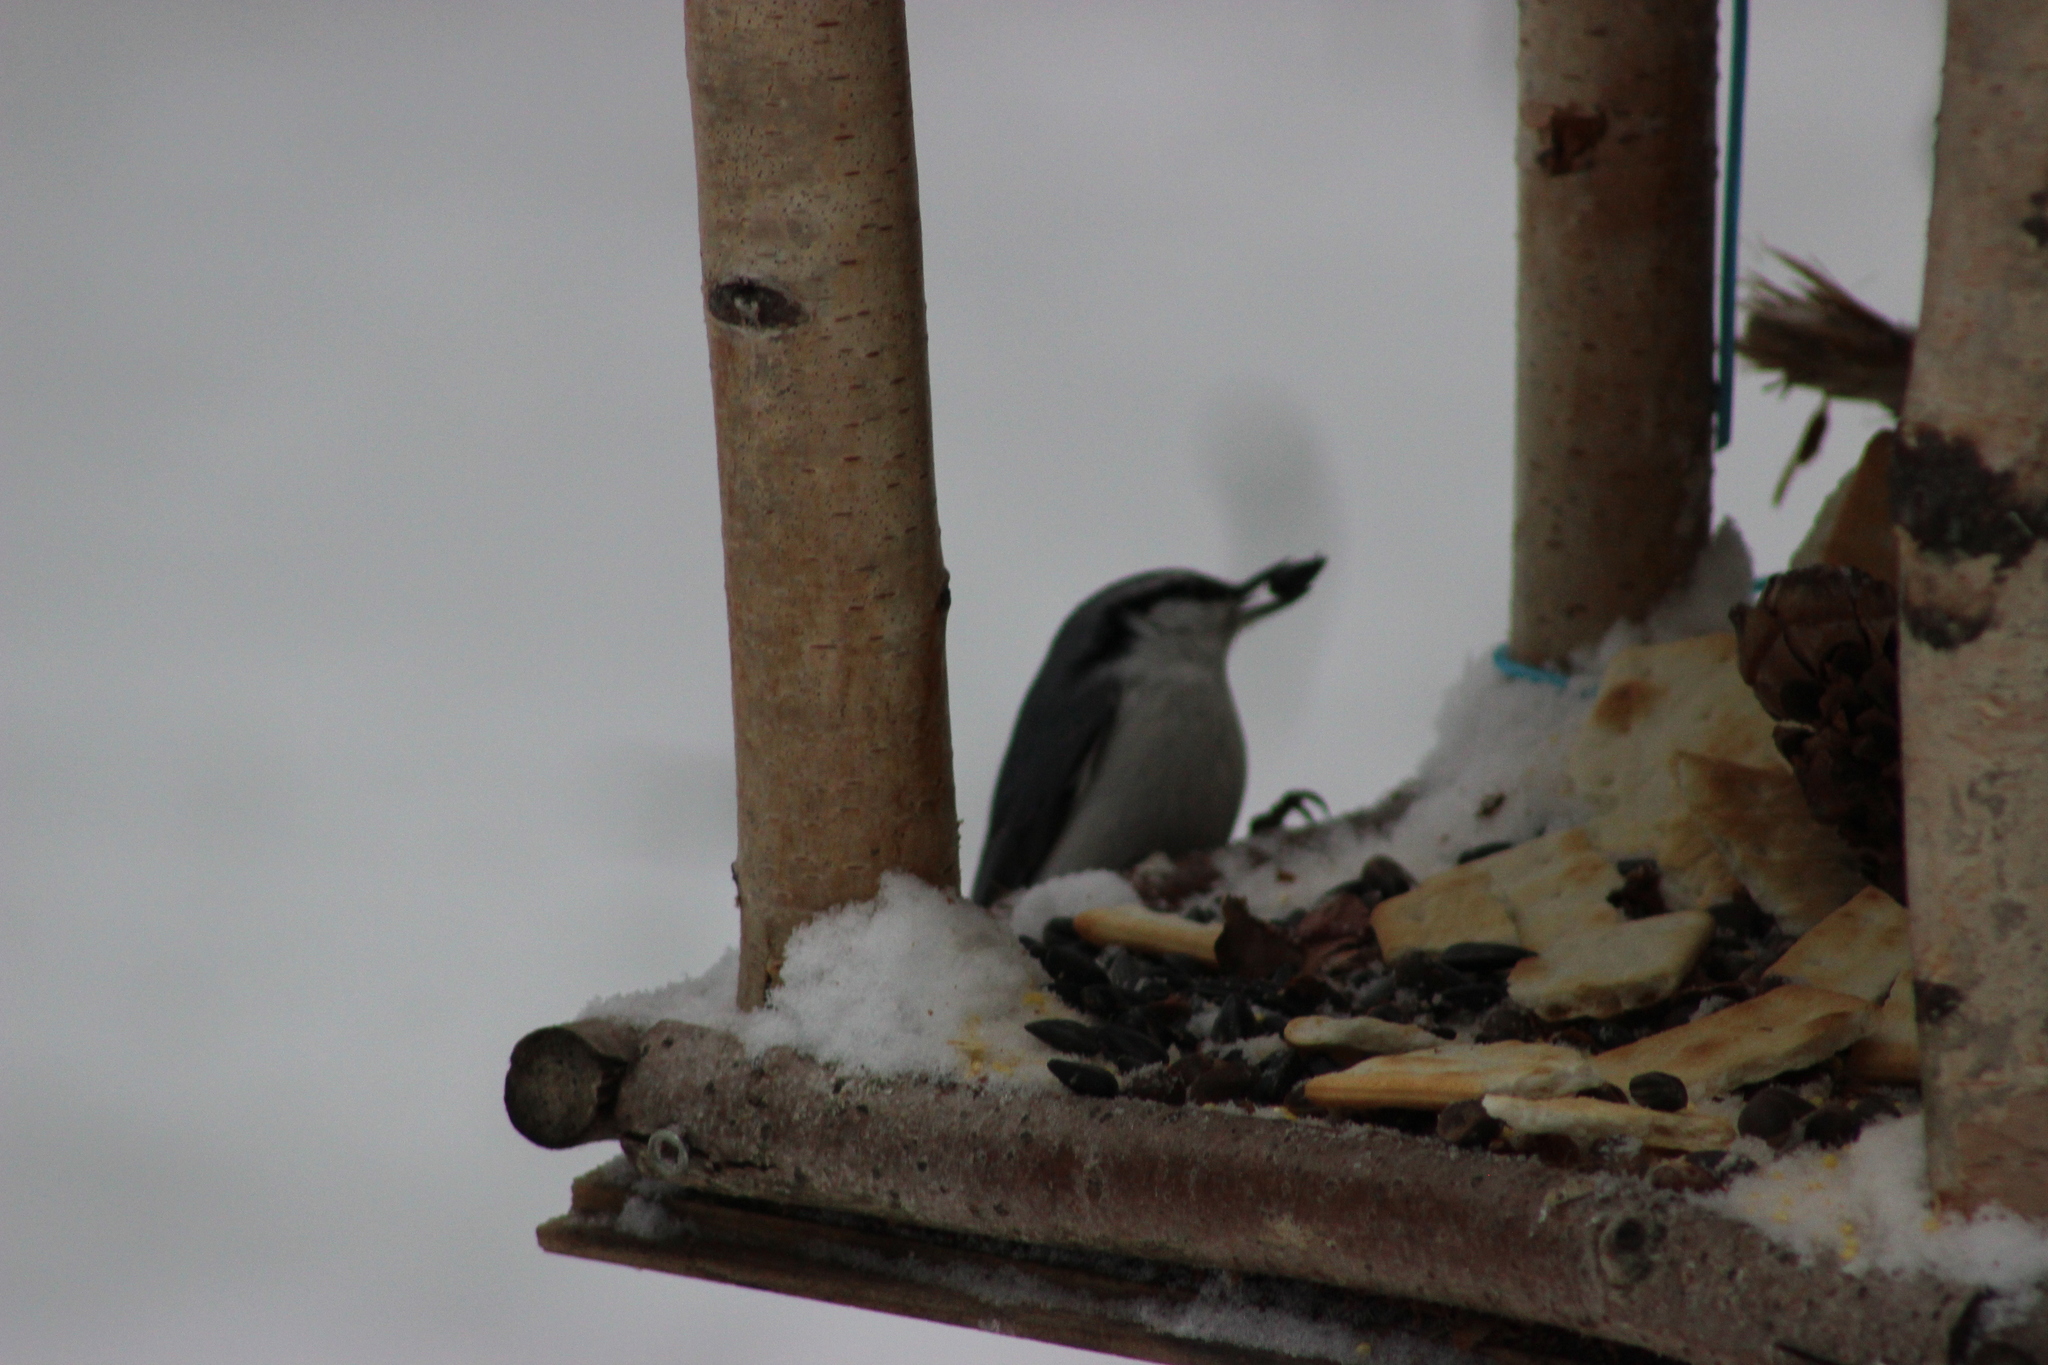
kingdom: Animalia
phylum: Chordata
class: Aves
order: Passeriformes
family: Sittidae
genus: Sitta
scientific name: Sitta europaea
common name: Eurasian nuthatch
